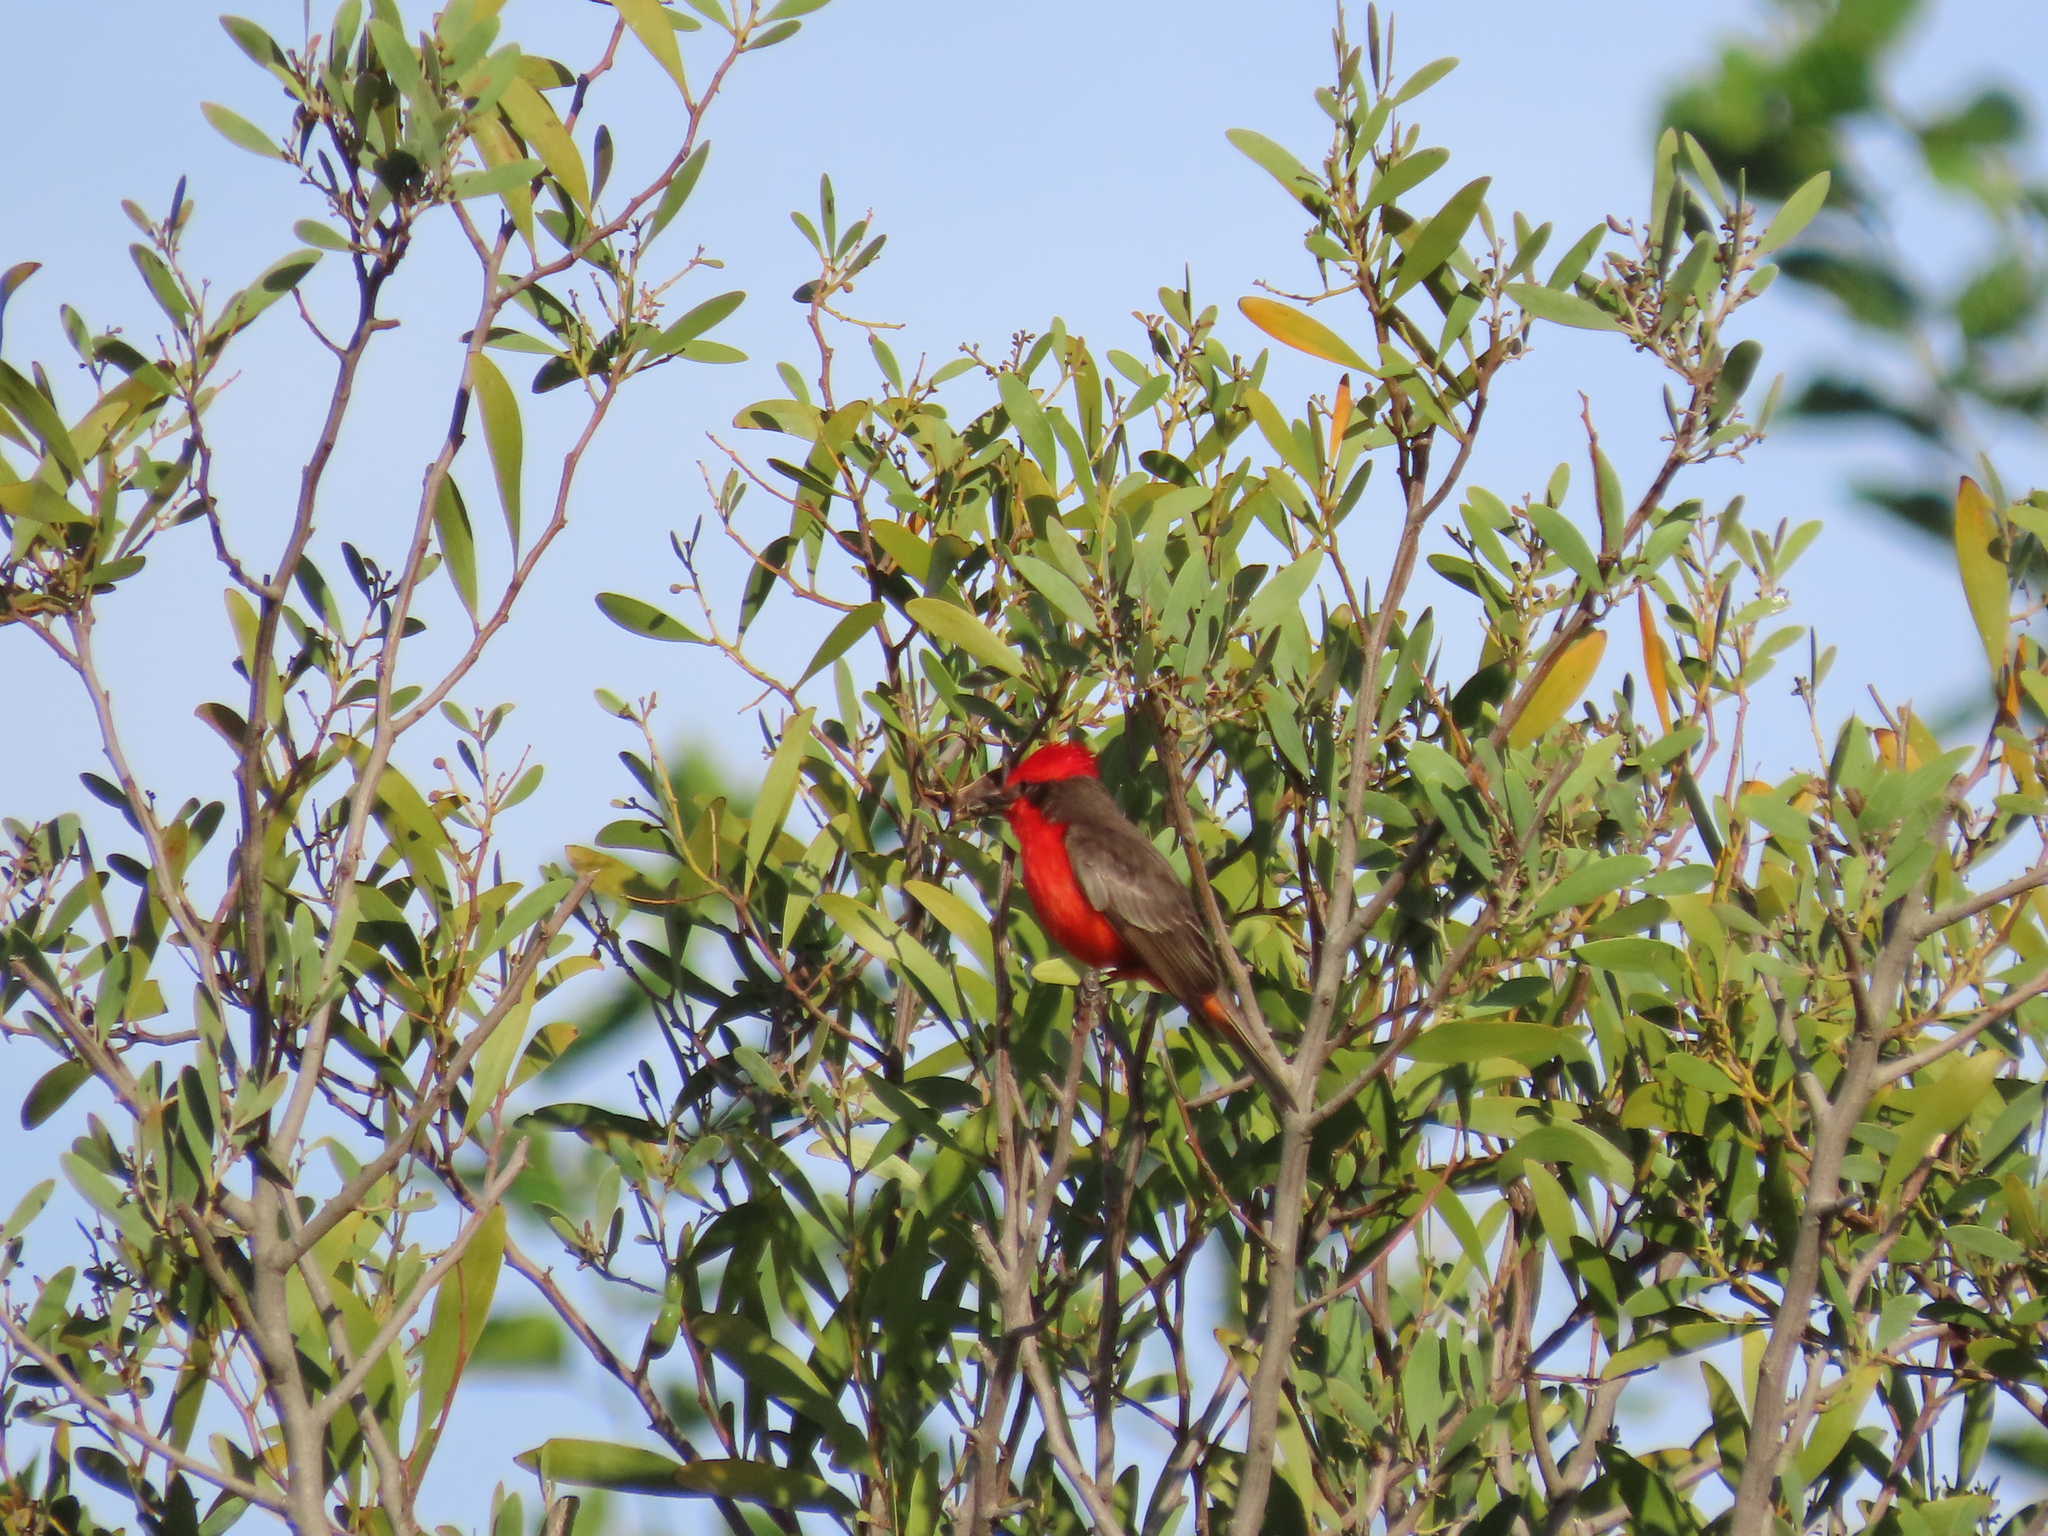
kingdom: Animalia
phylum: Chordata
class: Aves
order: Passeriformes
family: Tyrannidae
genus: Pyrocephalus
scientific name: Pyrocephalus rubinus
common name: Vermilion flycatcher
